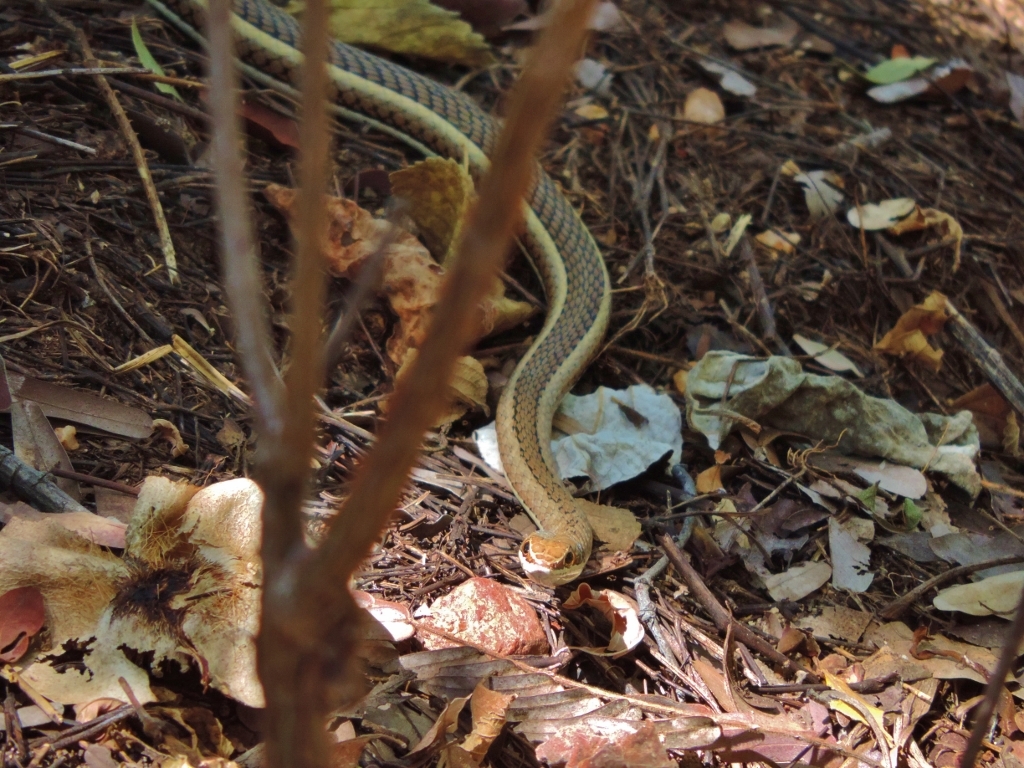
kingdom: Animalia
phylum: Chordata
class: Squamata
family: Psammophiidae
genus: Psammophis
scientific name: Psammophis subtaeniatus
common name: Stripe-bellied sand snake
